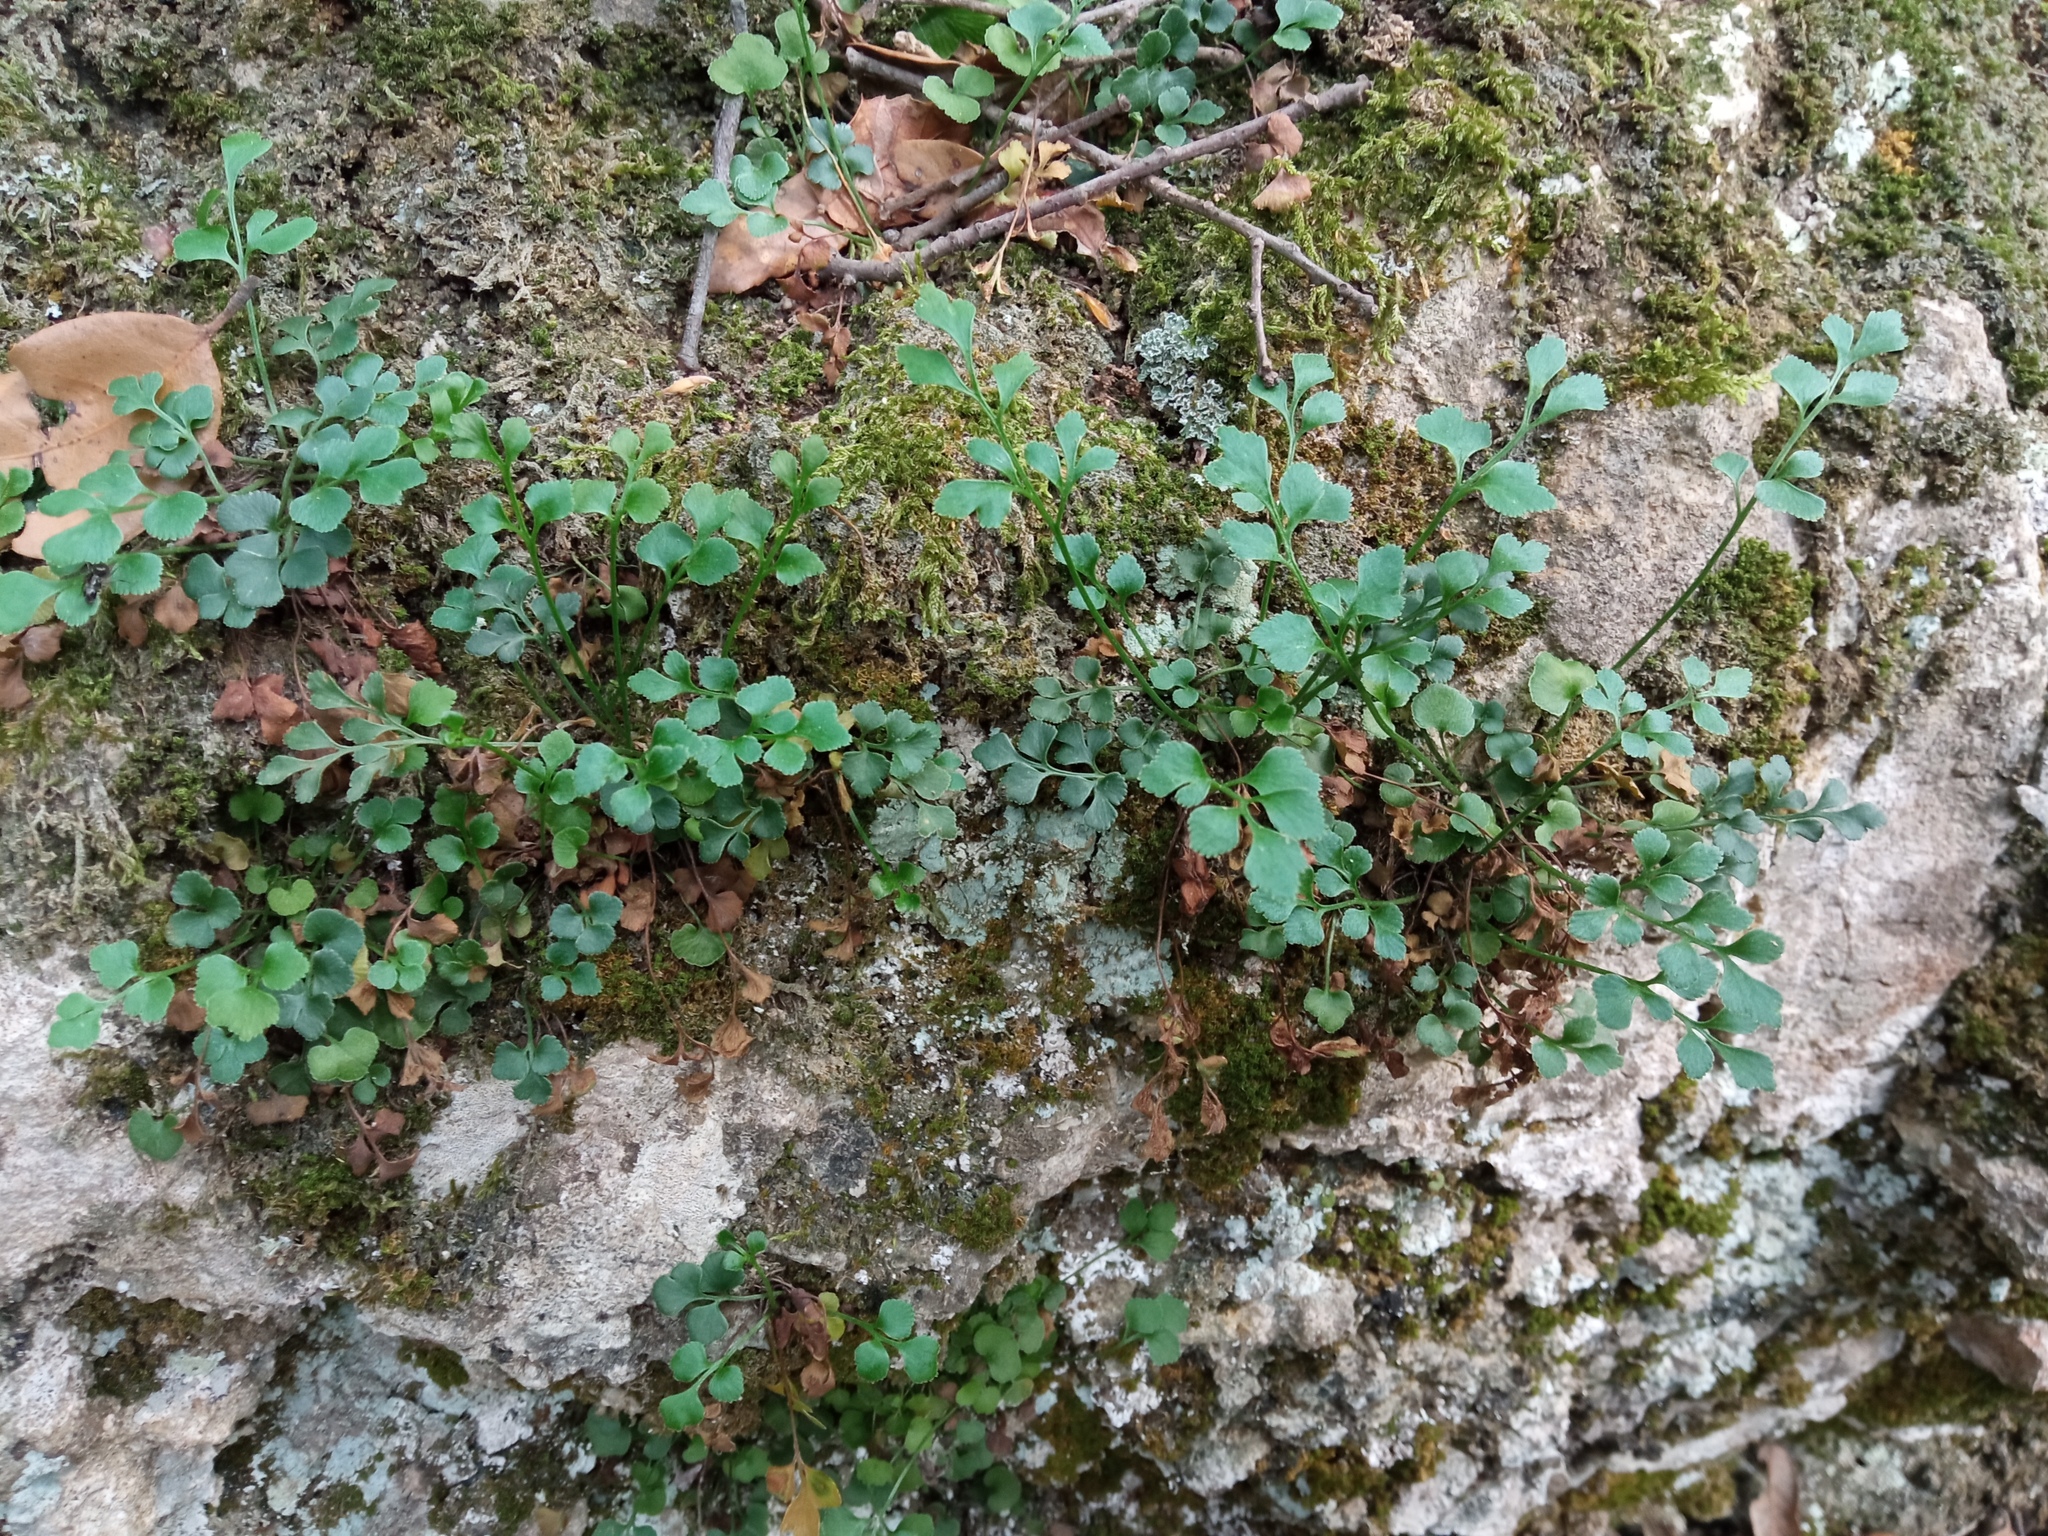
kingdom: Plantae
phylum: Tracheophyta
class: Polypodiopsida
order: Polypodiales
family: Aspleniaceae
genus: Asplenium
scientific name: Asplenium ruta-muraria
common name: Wall-rue
